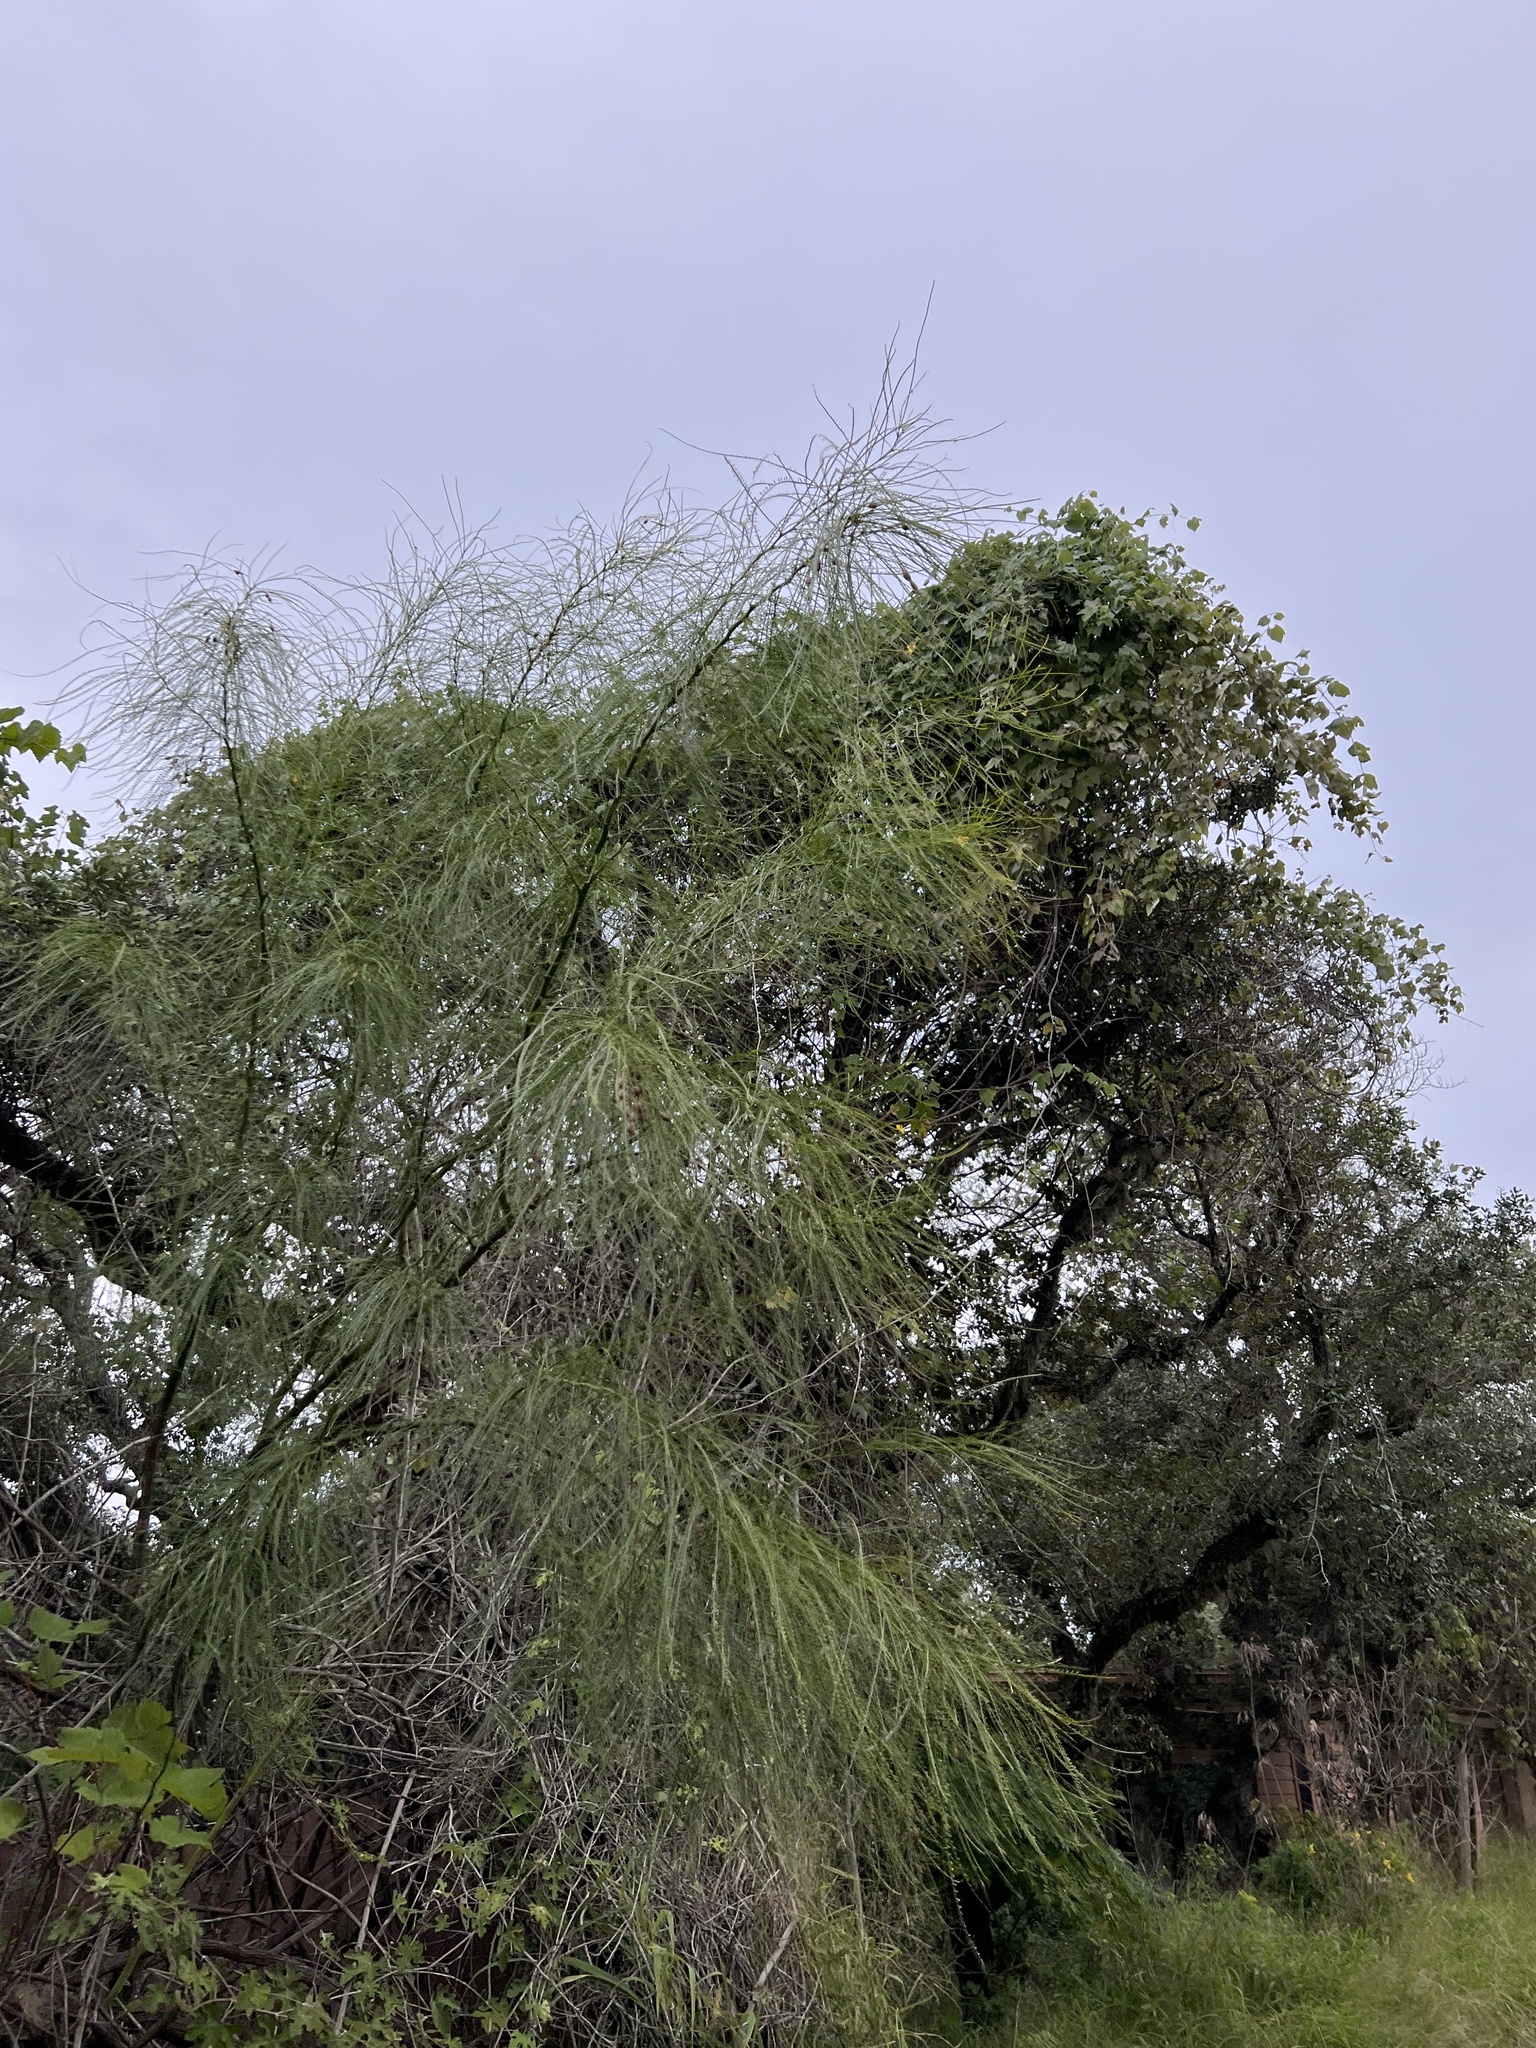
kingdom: Plantae
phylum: Tracheophyta
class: Magnoliopsida
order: Fabales
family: Fabaceae
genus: Parkinsonia
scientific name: Parkinsonia aculeata
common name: Jerusalem thorn
